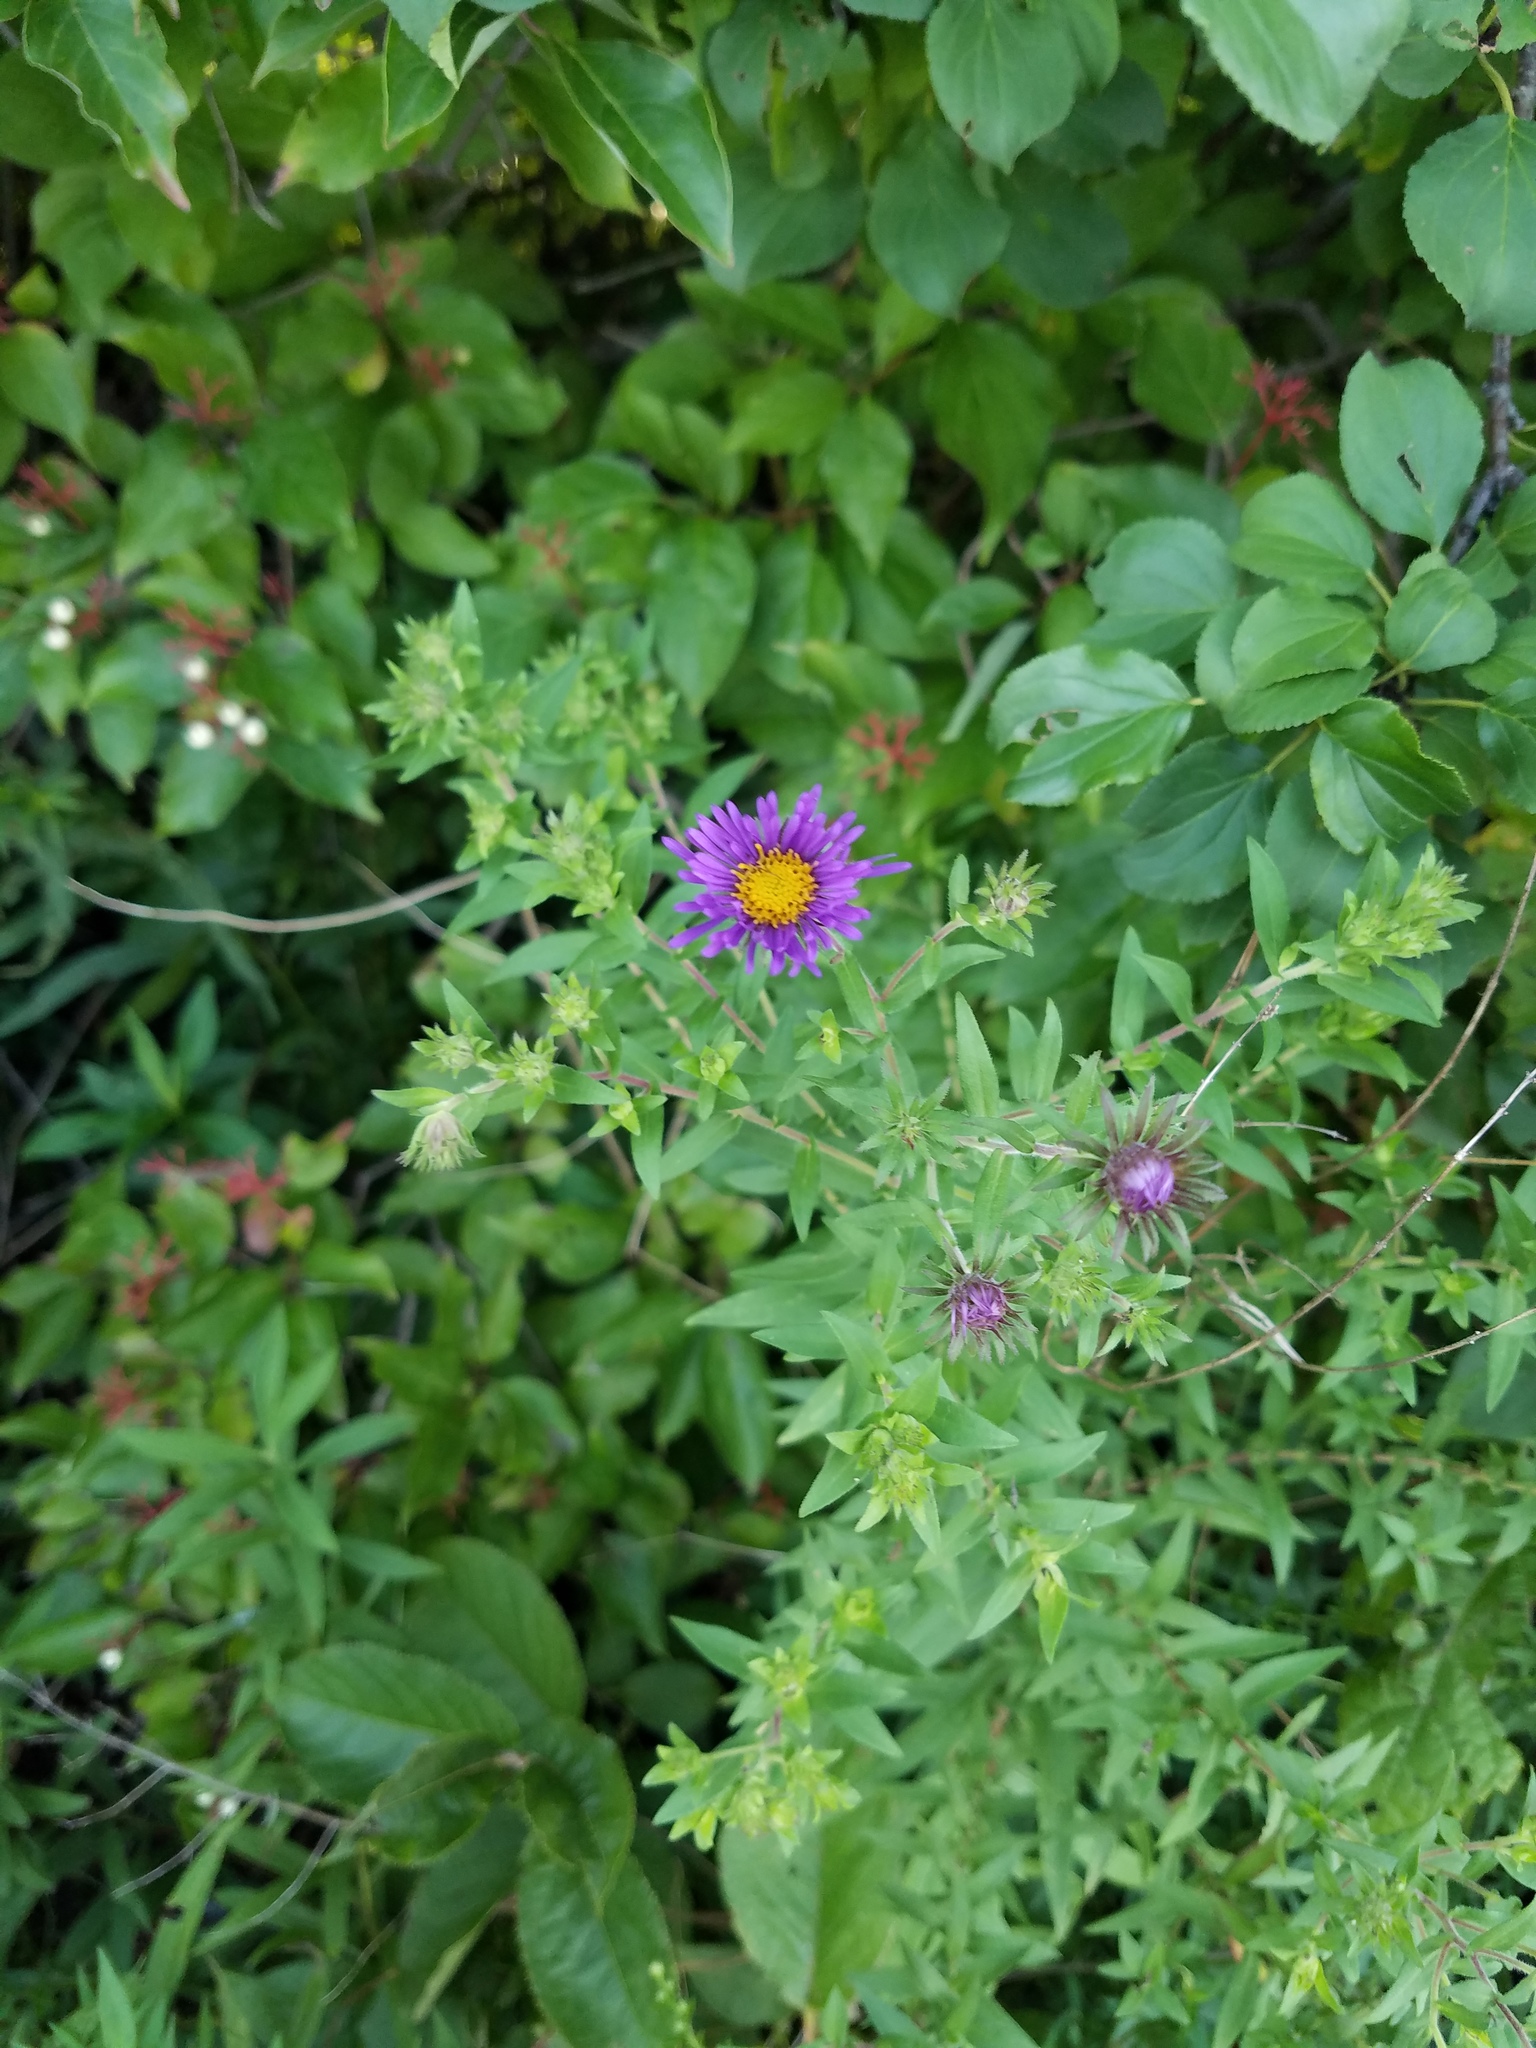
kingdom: Plantae
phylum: Tracheophyta
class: Magnoliopsida
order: Asterales
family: Asteraceae
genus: Symphyotrichum
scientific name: Symphyotrichum novae-angliae
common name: Michaelmas daisy
